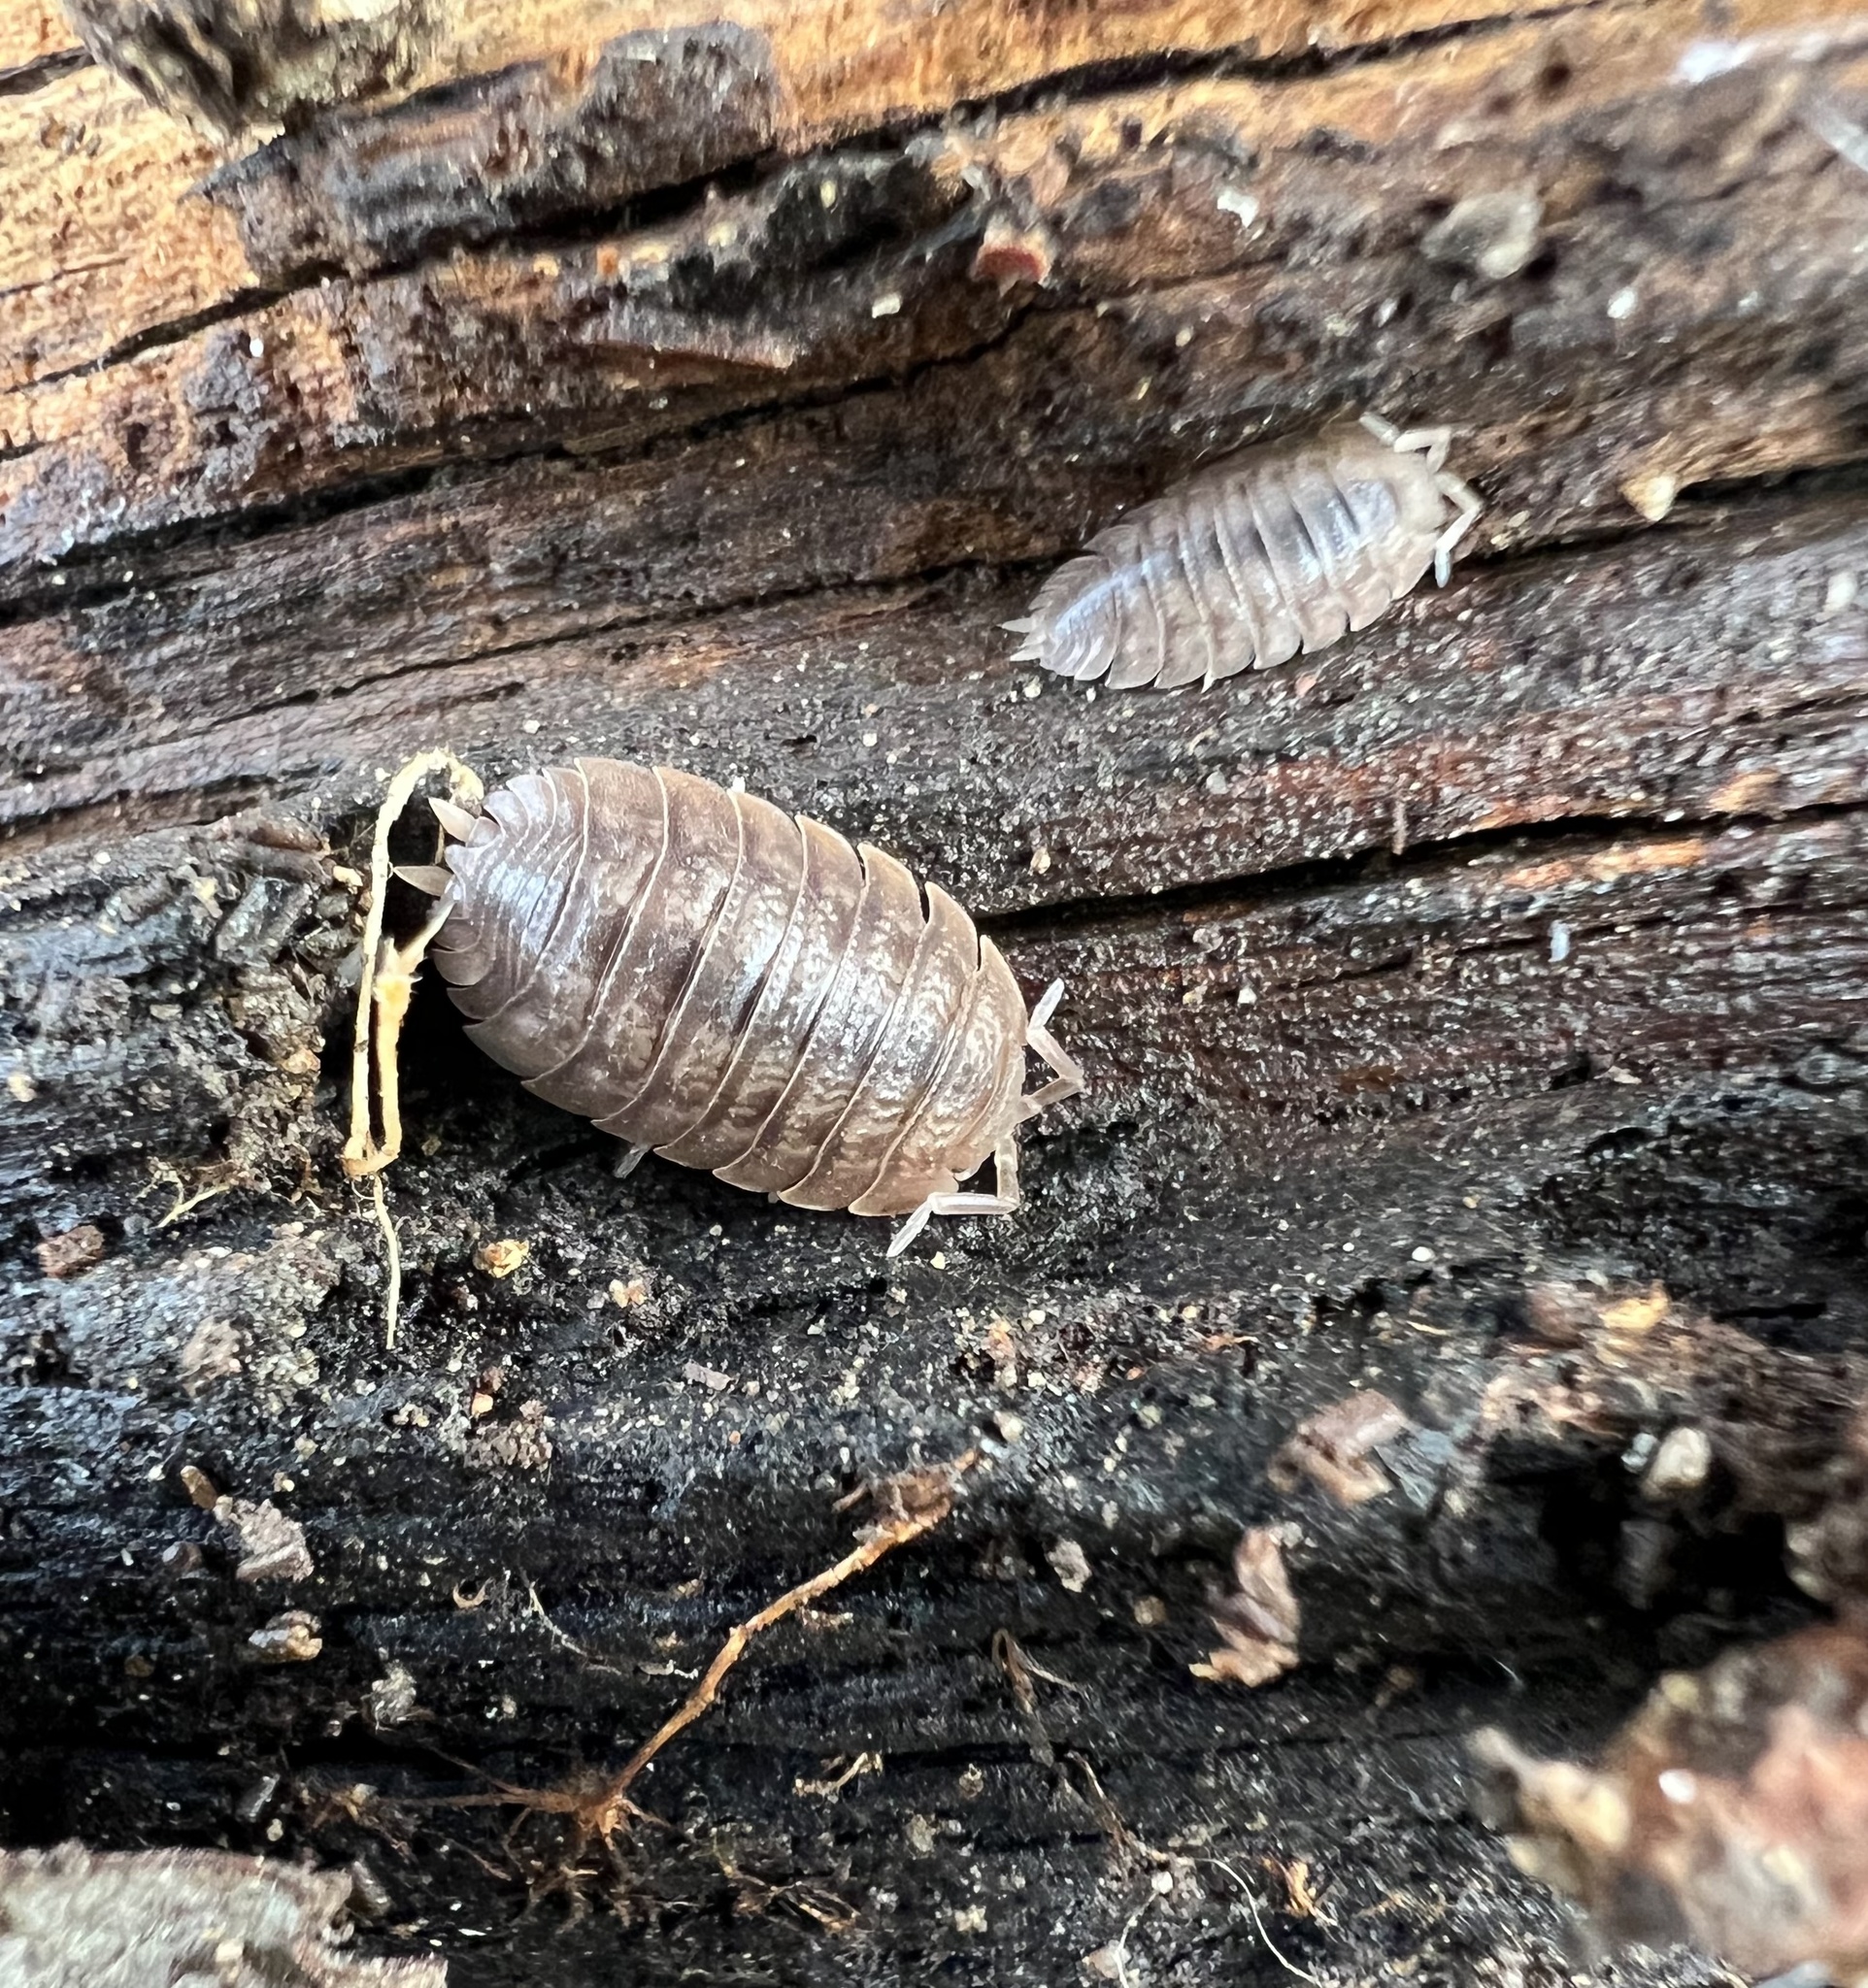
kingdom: Animalia
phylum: Arthropoda
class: Malacostraca
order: Isopoda
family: Porcellionidae
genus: Porcellio
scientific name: Porcellio dilatatus
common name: Isopod
